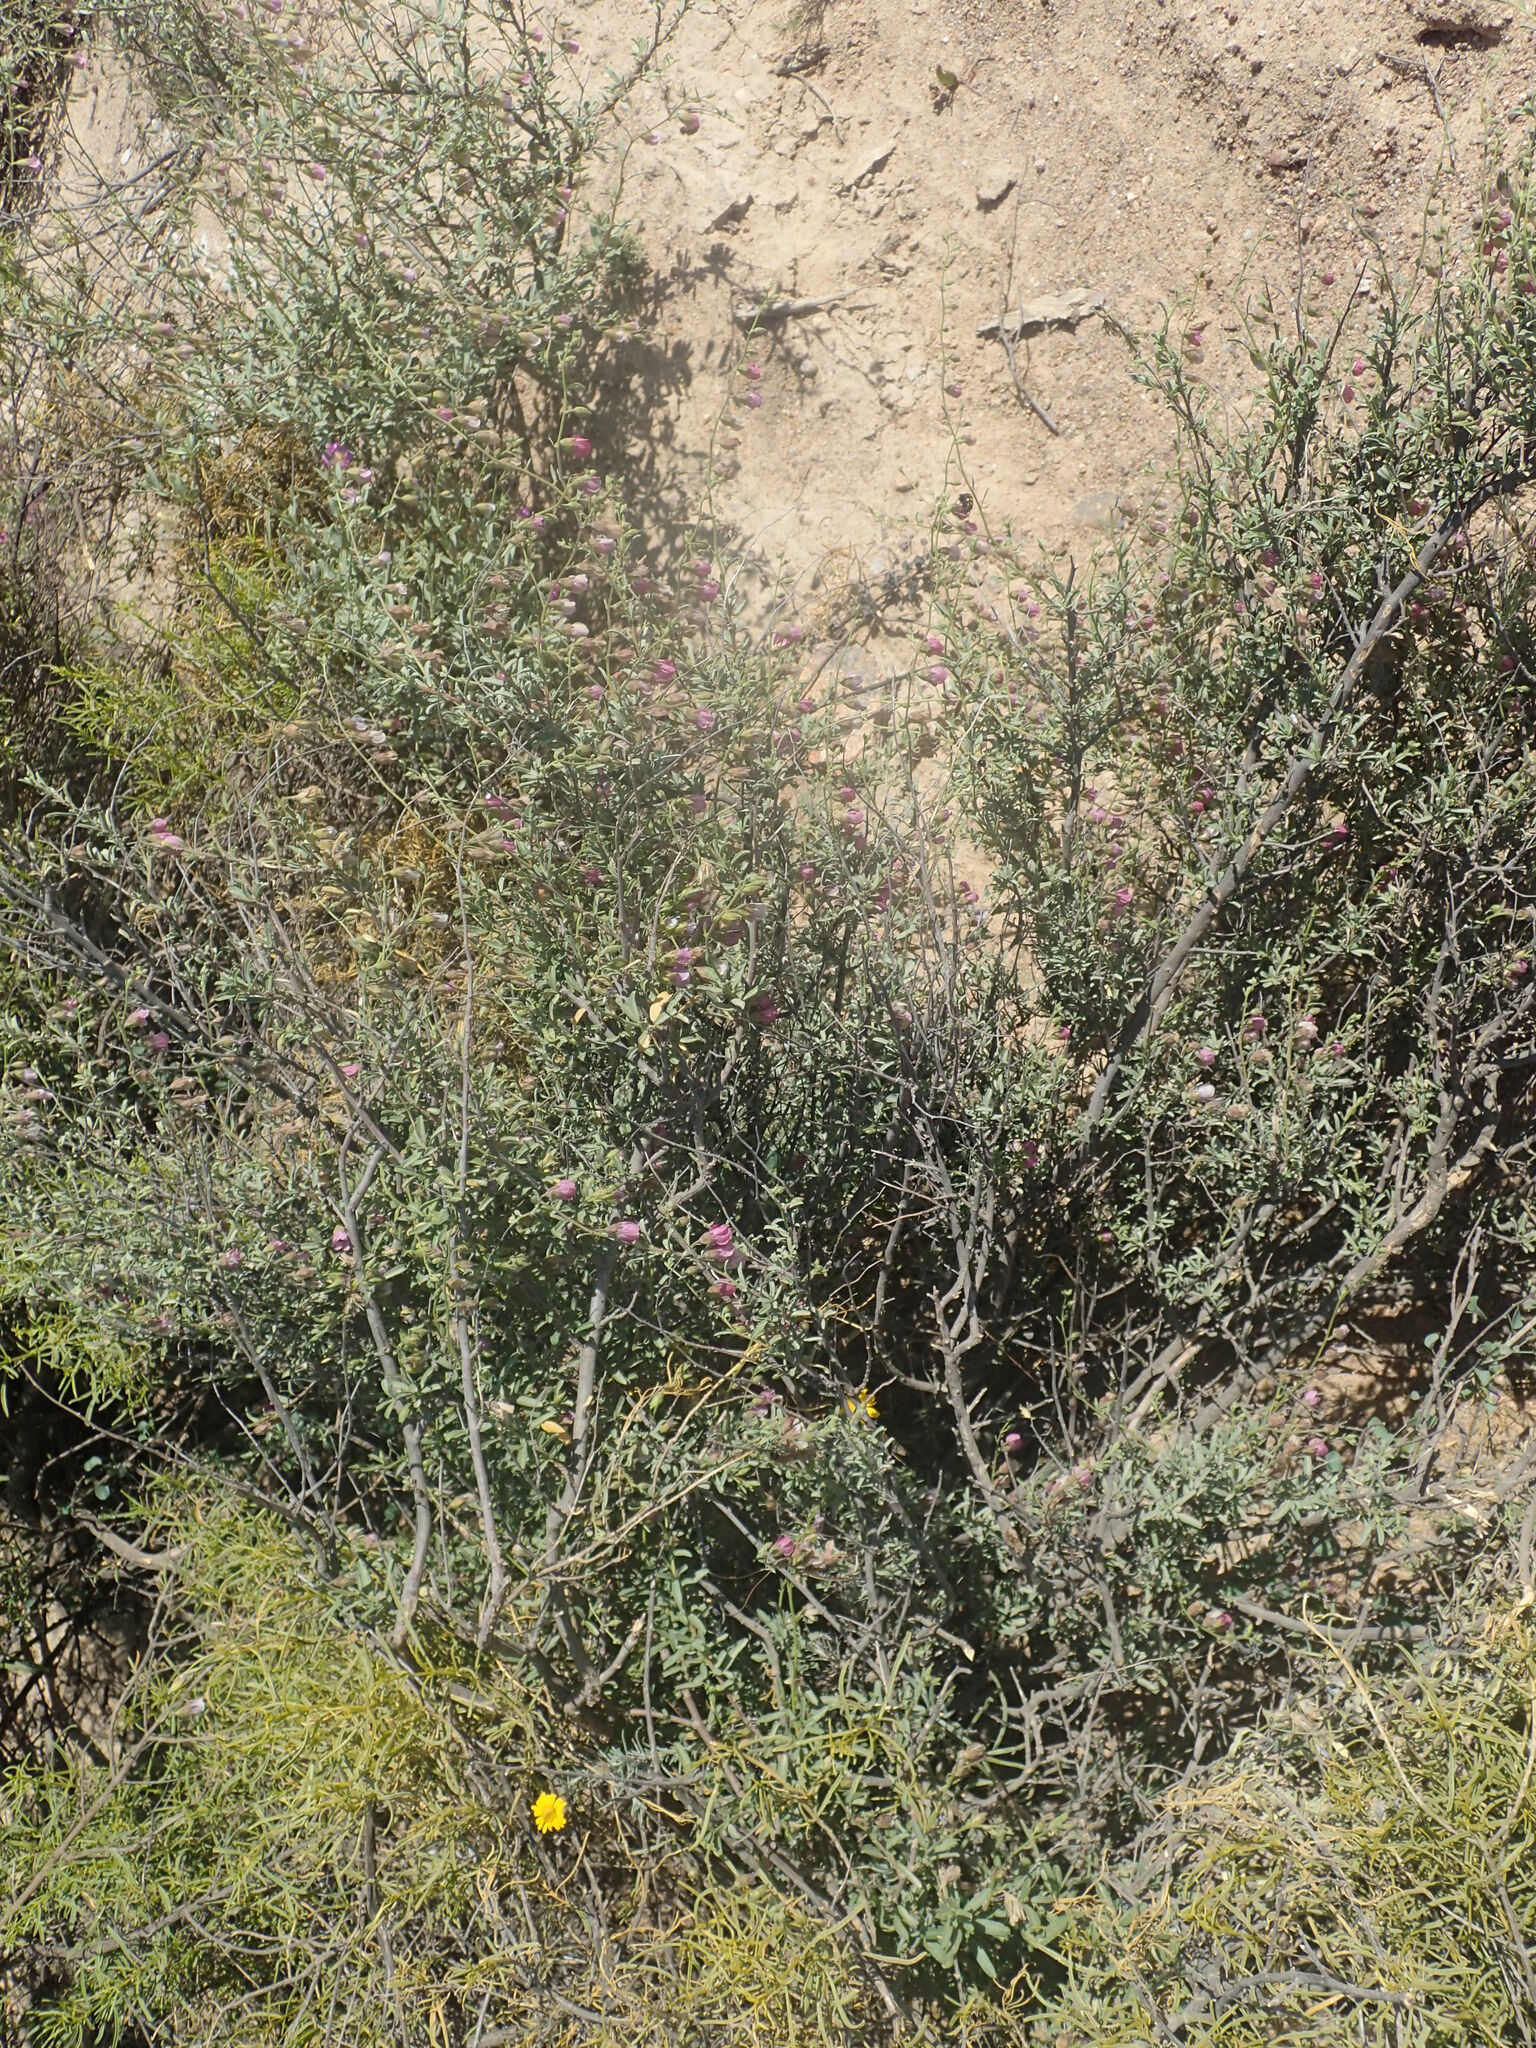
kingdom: Plantae
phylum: Tracheophyta
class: Magnoliopsida
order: Malvales
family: Malvaceae
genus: Hermannia
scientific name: Hermannia trifurca
